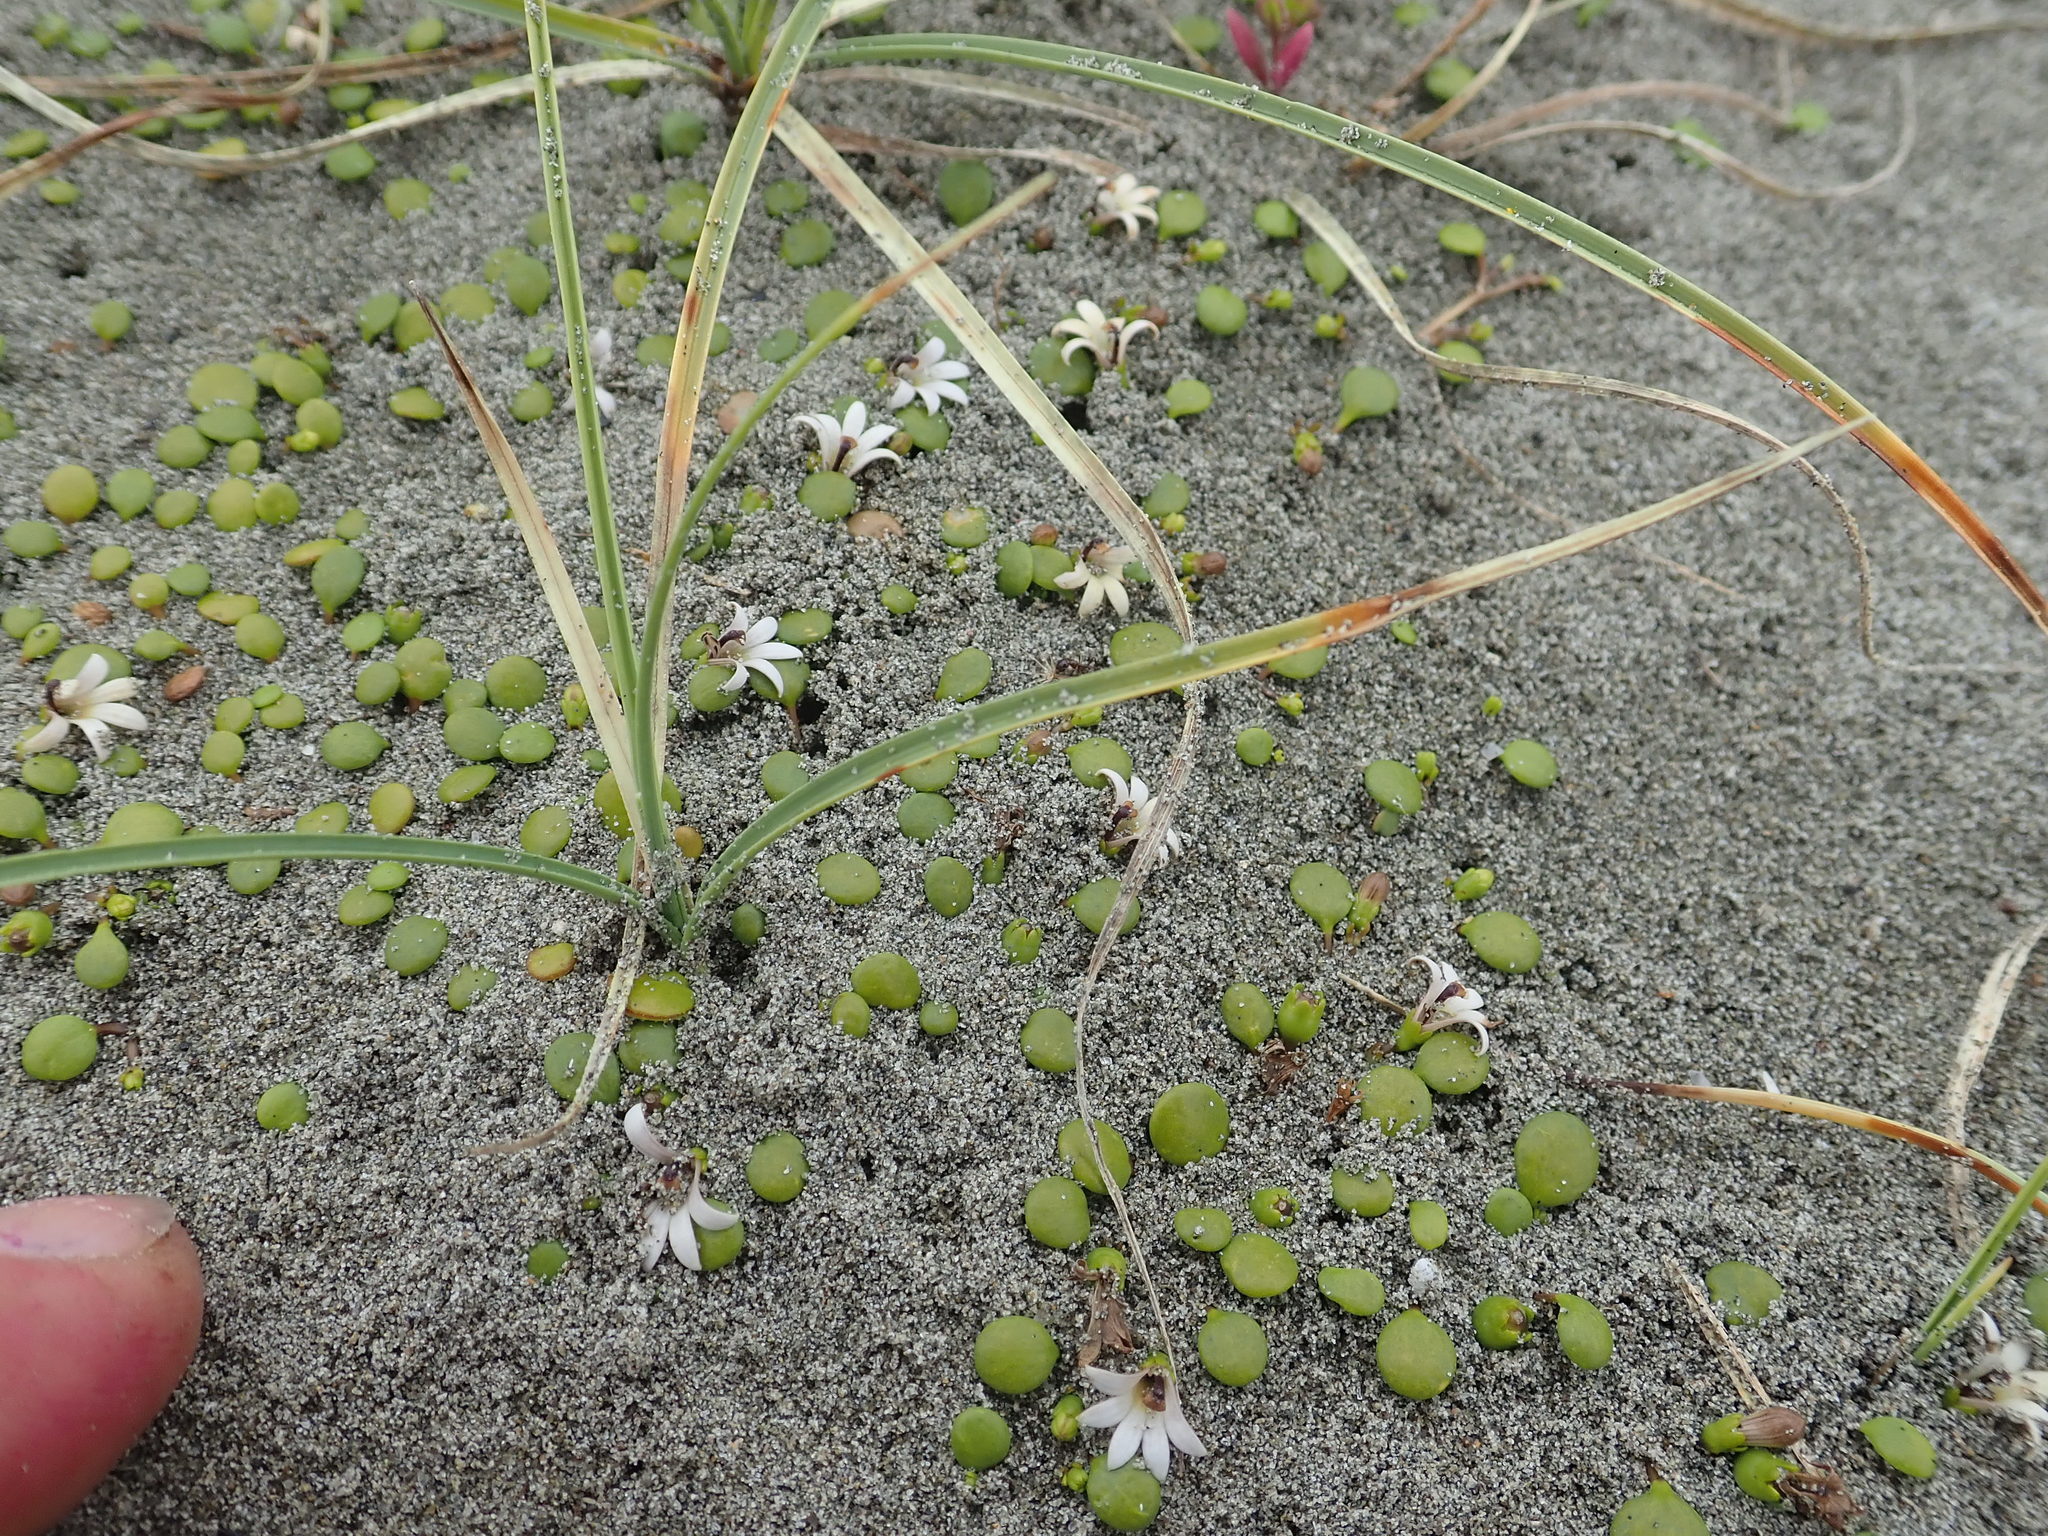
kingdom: Plantae
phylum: Tracheophyta
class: Magnoliopsida
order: Asterales
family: Goodeniaceae
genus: Goodenia
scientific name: Goodenia heenanii
